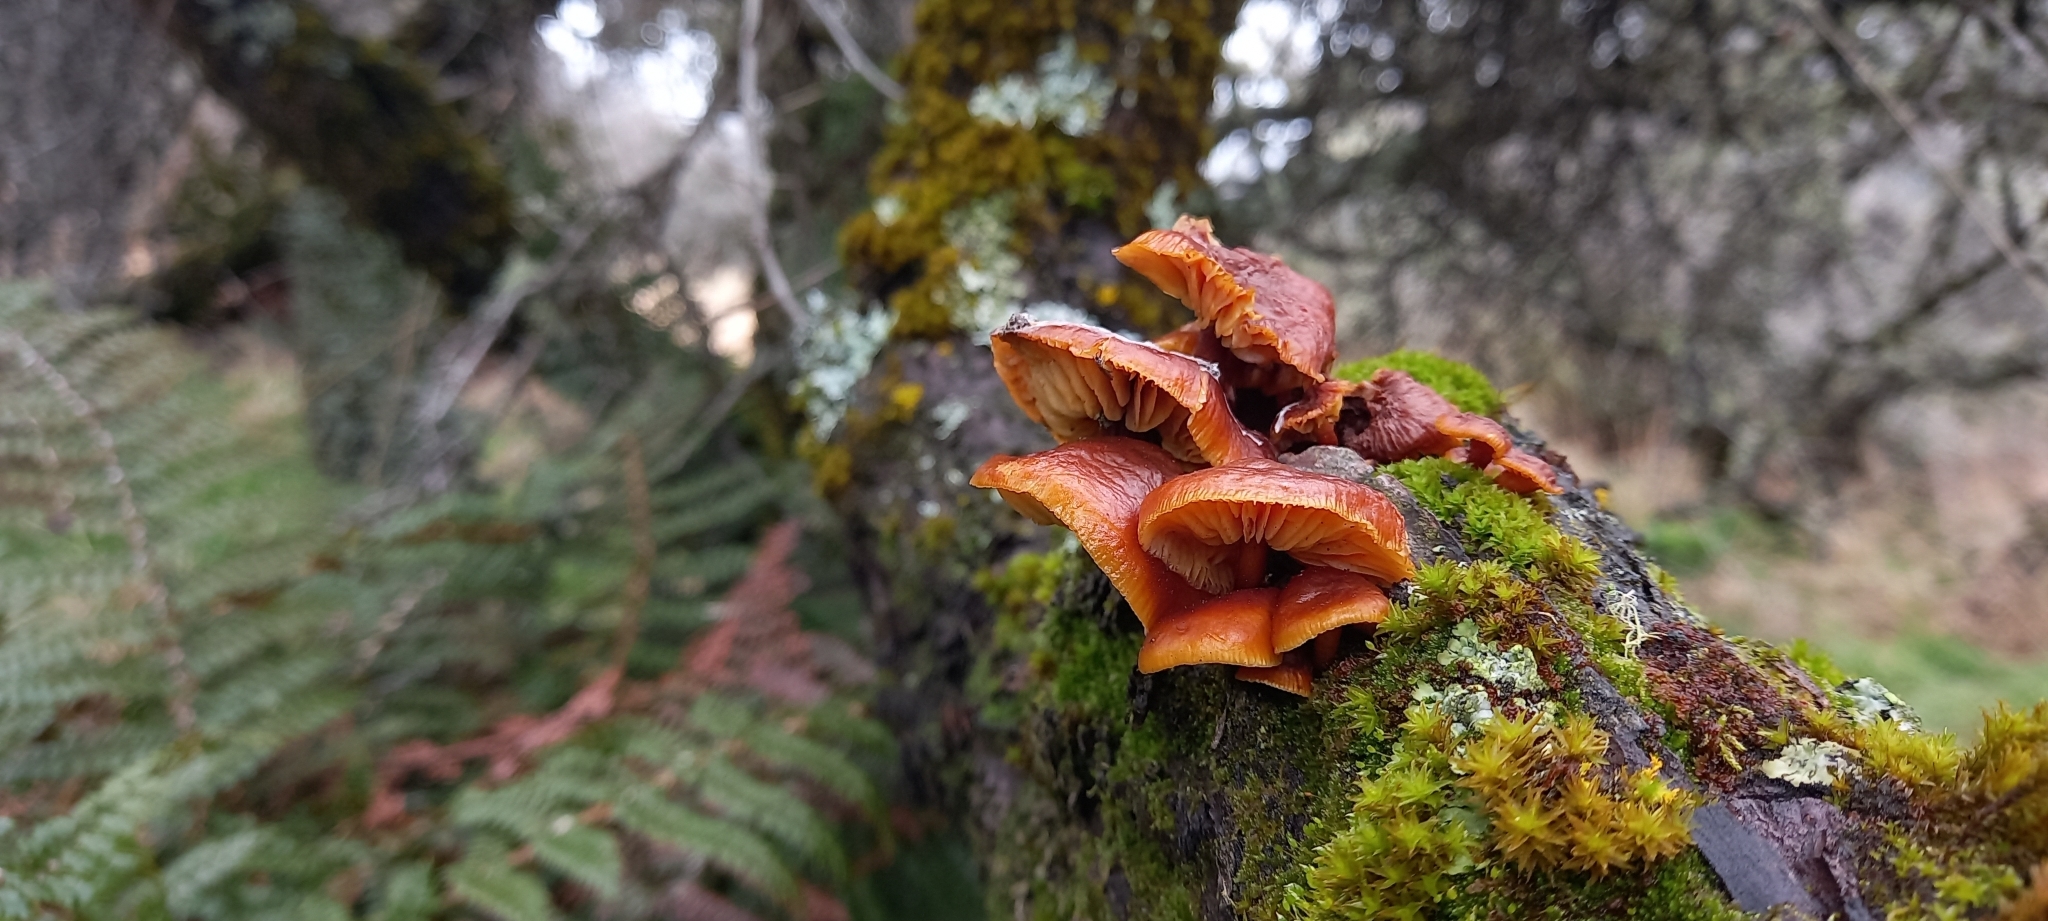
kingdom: Fungi
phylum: Basidiomycota
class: Agaricomycetes
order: Agaricales
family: Physalacriaceae
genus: Flammulina
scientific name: Flammulina velutipes
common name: Velvet shank
